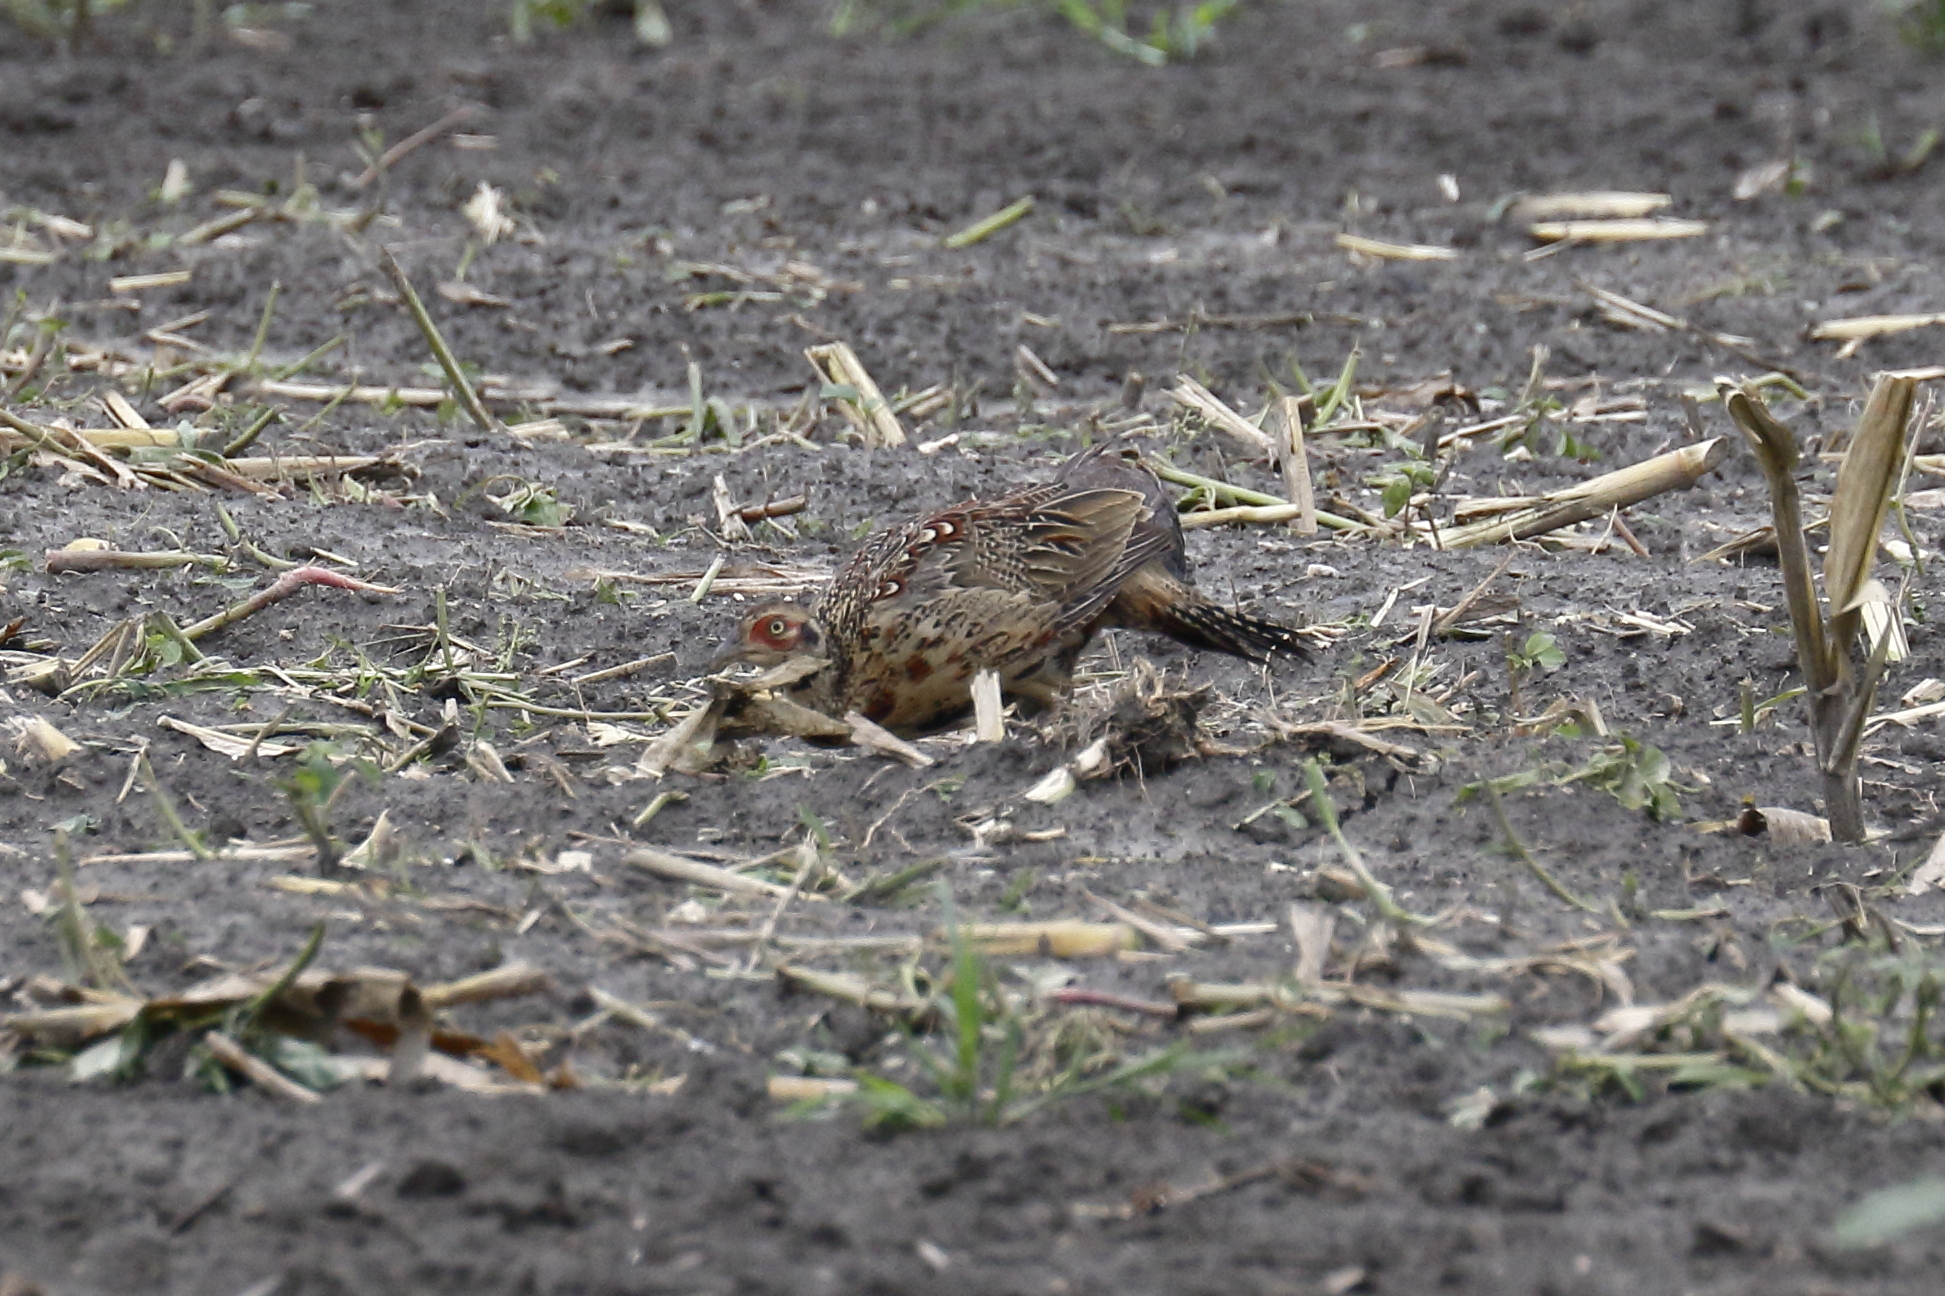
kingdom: Animalia
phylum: Chordata
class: Aves
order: Galliformes
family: Phasianidae
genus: Phasianus
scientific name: Phasianus colchicus
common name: Common pheasant
